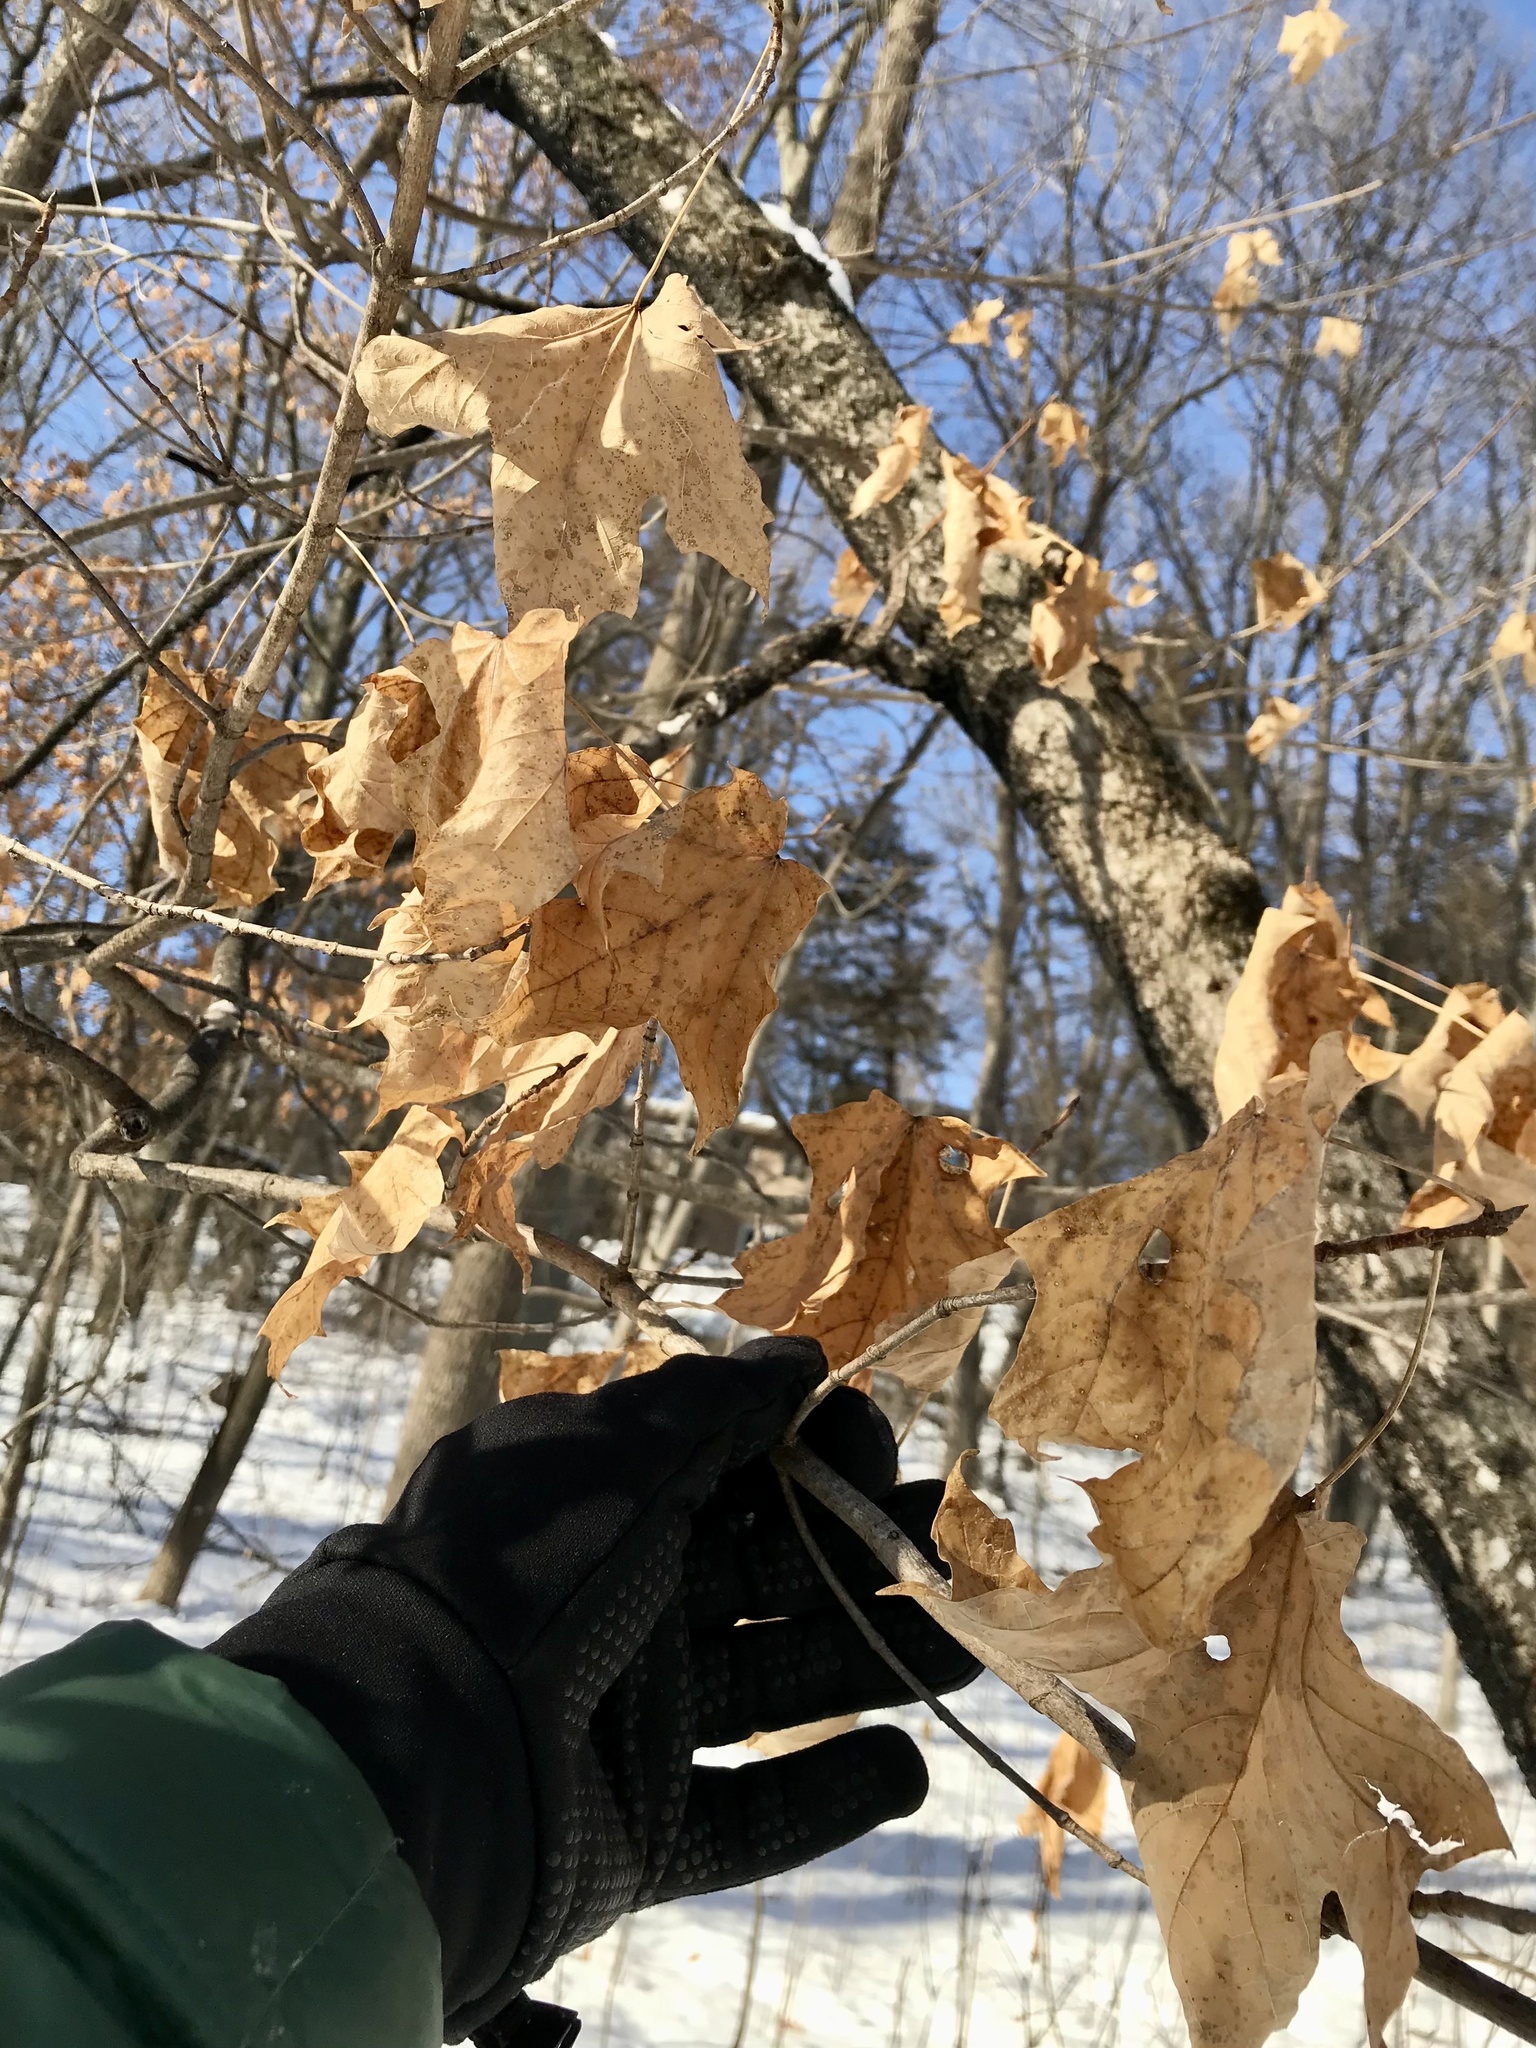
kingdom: Plantae
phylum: Tracheophyta
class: Magnoliopsida
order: Sapindales
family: Sapindaceae
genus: Acer
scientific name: Acer saccharum
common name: Sugar maple
